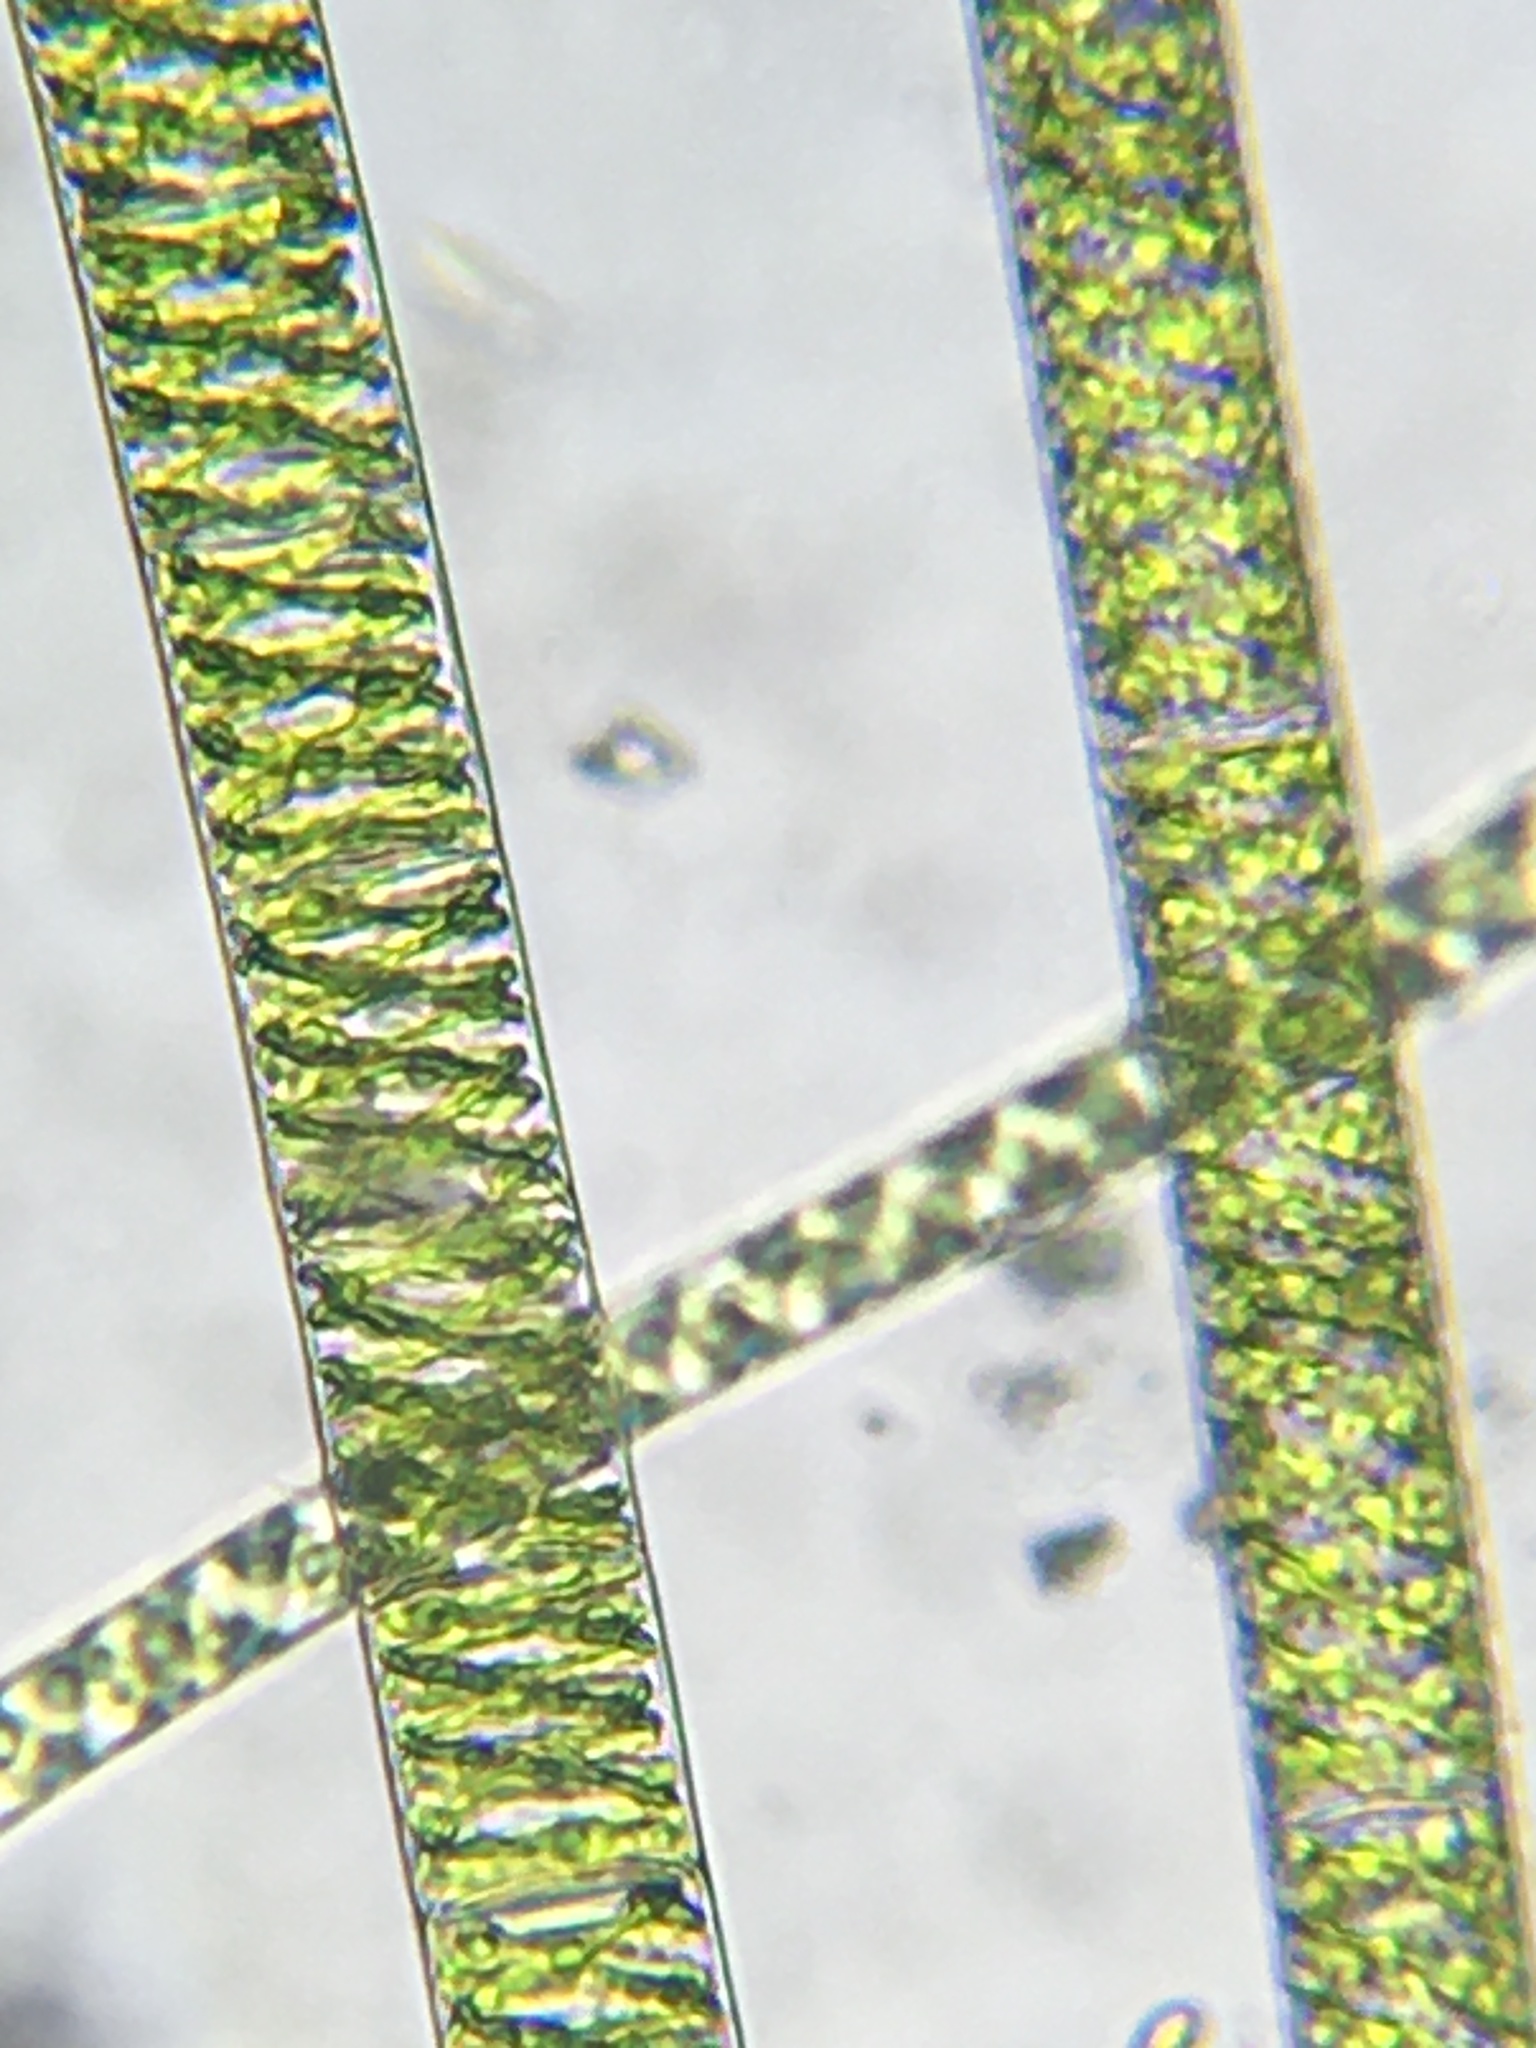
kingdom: Plantae
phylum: Charophyta
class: Zygnematophyceae
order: Zygnematales
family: Zygnemataceae
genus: Spirogyra
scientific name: Spirogyra
